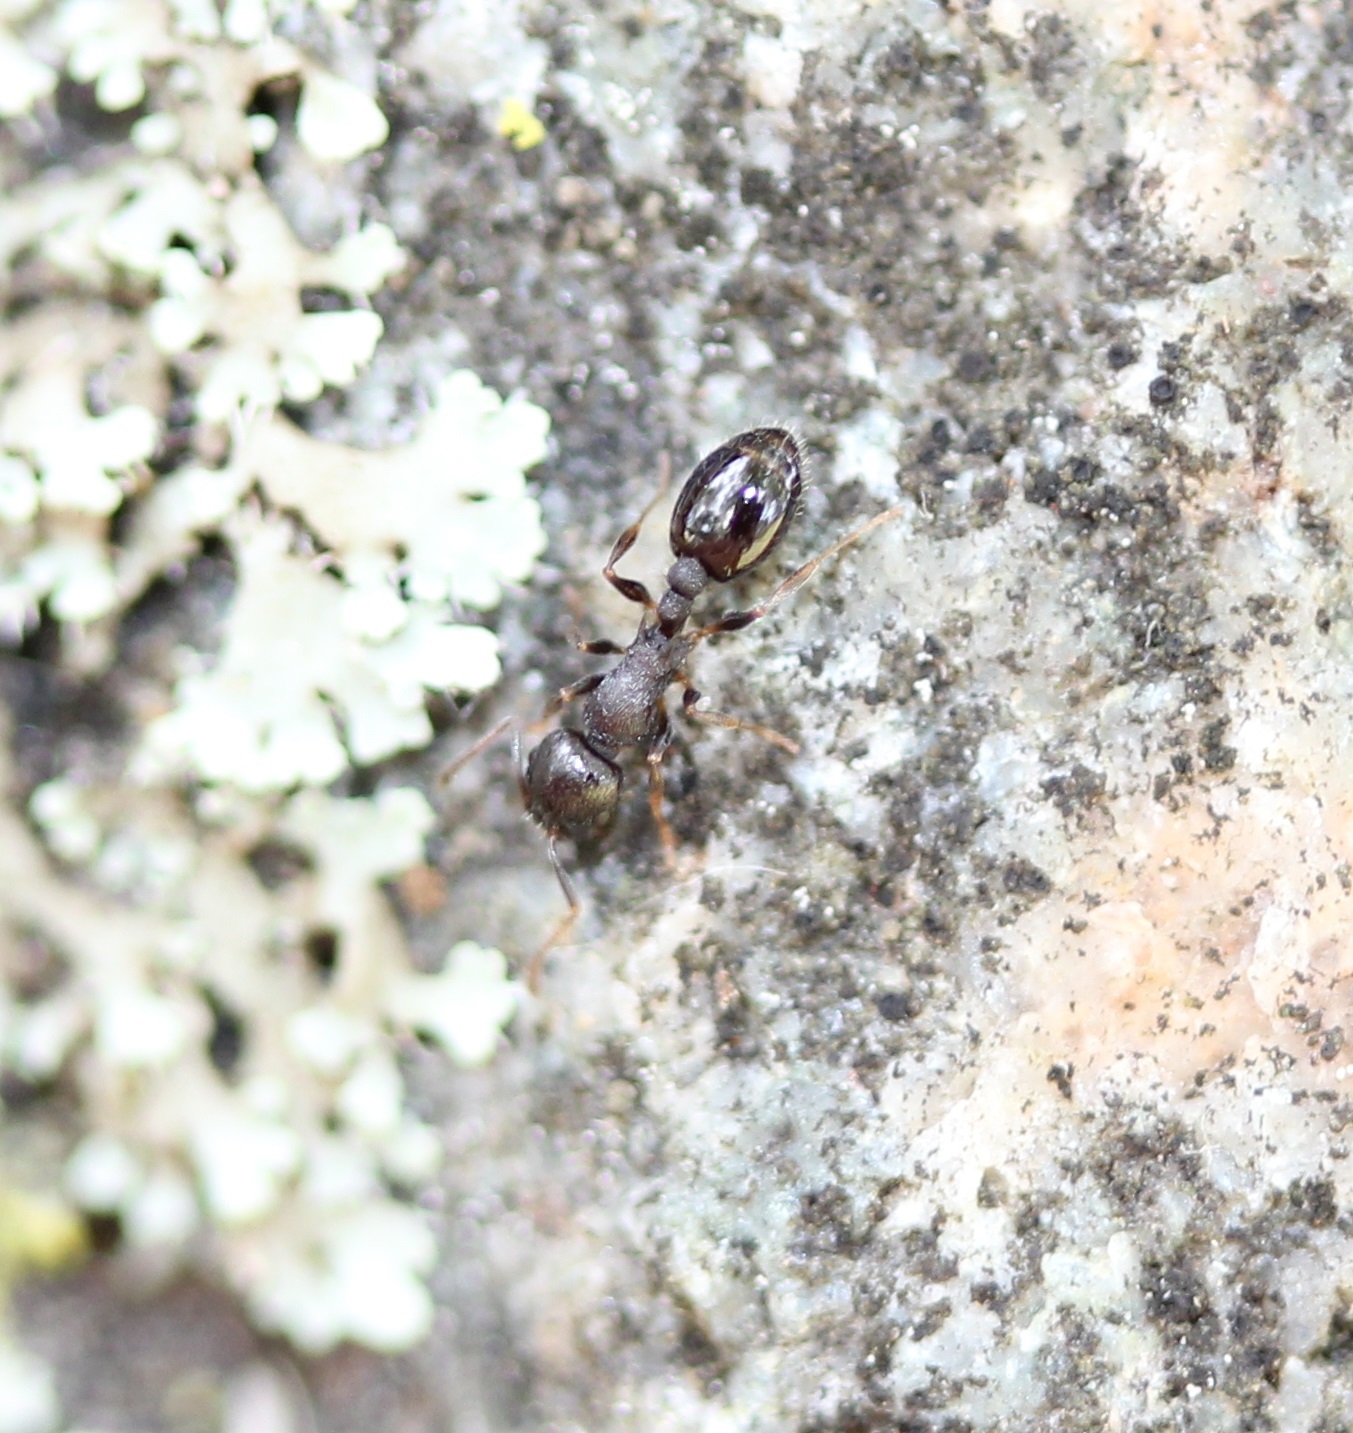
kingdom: Animalia
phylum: Arthropoda
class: Insecta
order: Hymenoptera
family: Formicidae
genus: Temnothorax
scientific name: Temnothorax longispinosus
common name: Long-spined acorn ant
